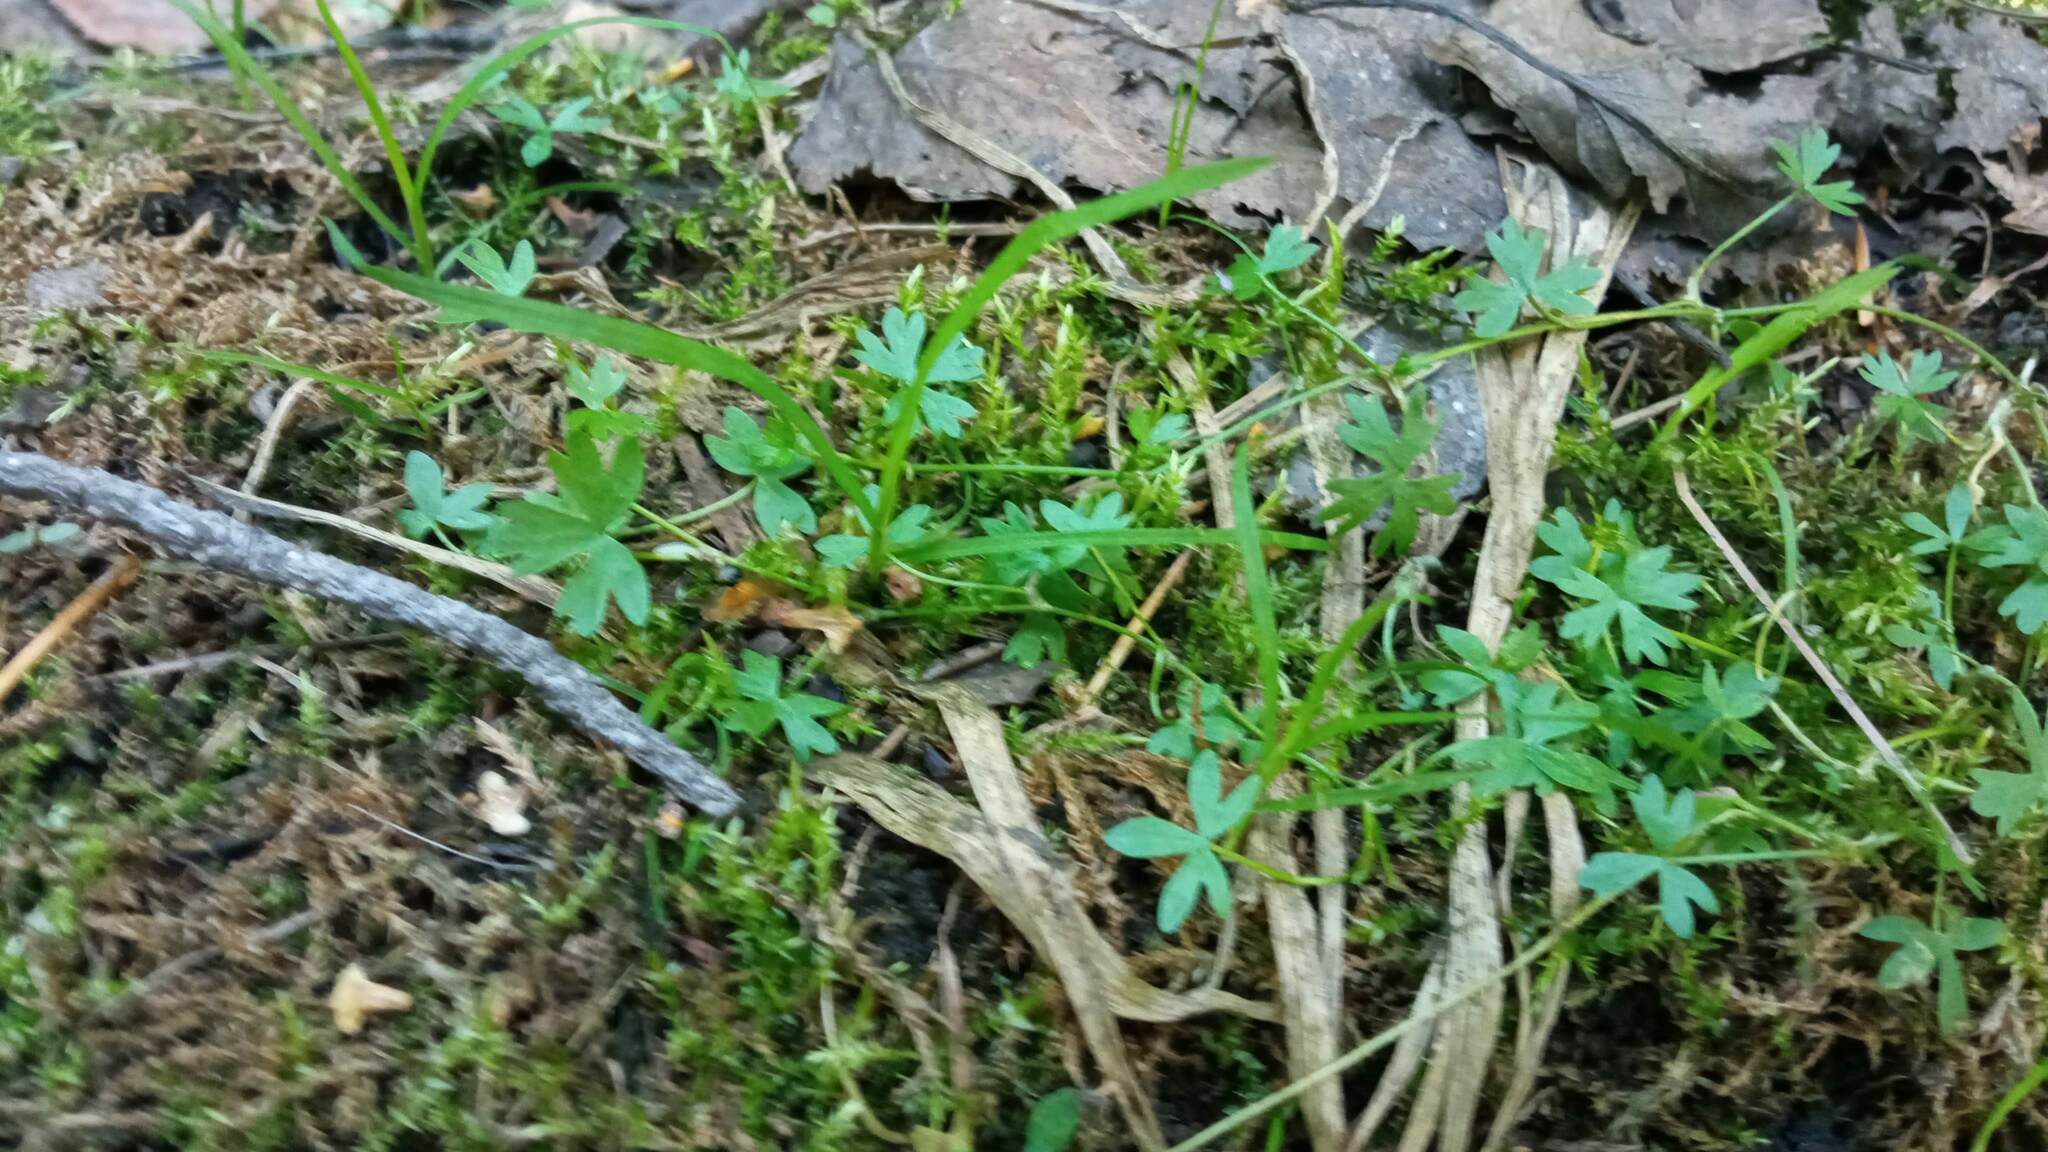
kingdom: Plantae
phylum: Tracheophyta
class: Magnoliopsida
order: Ranunculales
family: Ranunculaceae
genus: Ranunculus
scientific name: Ranunculus gmelinii
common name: Gmelin's buttercup
